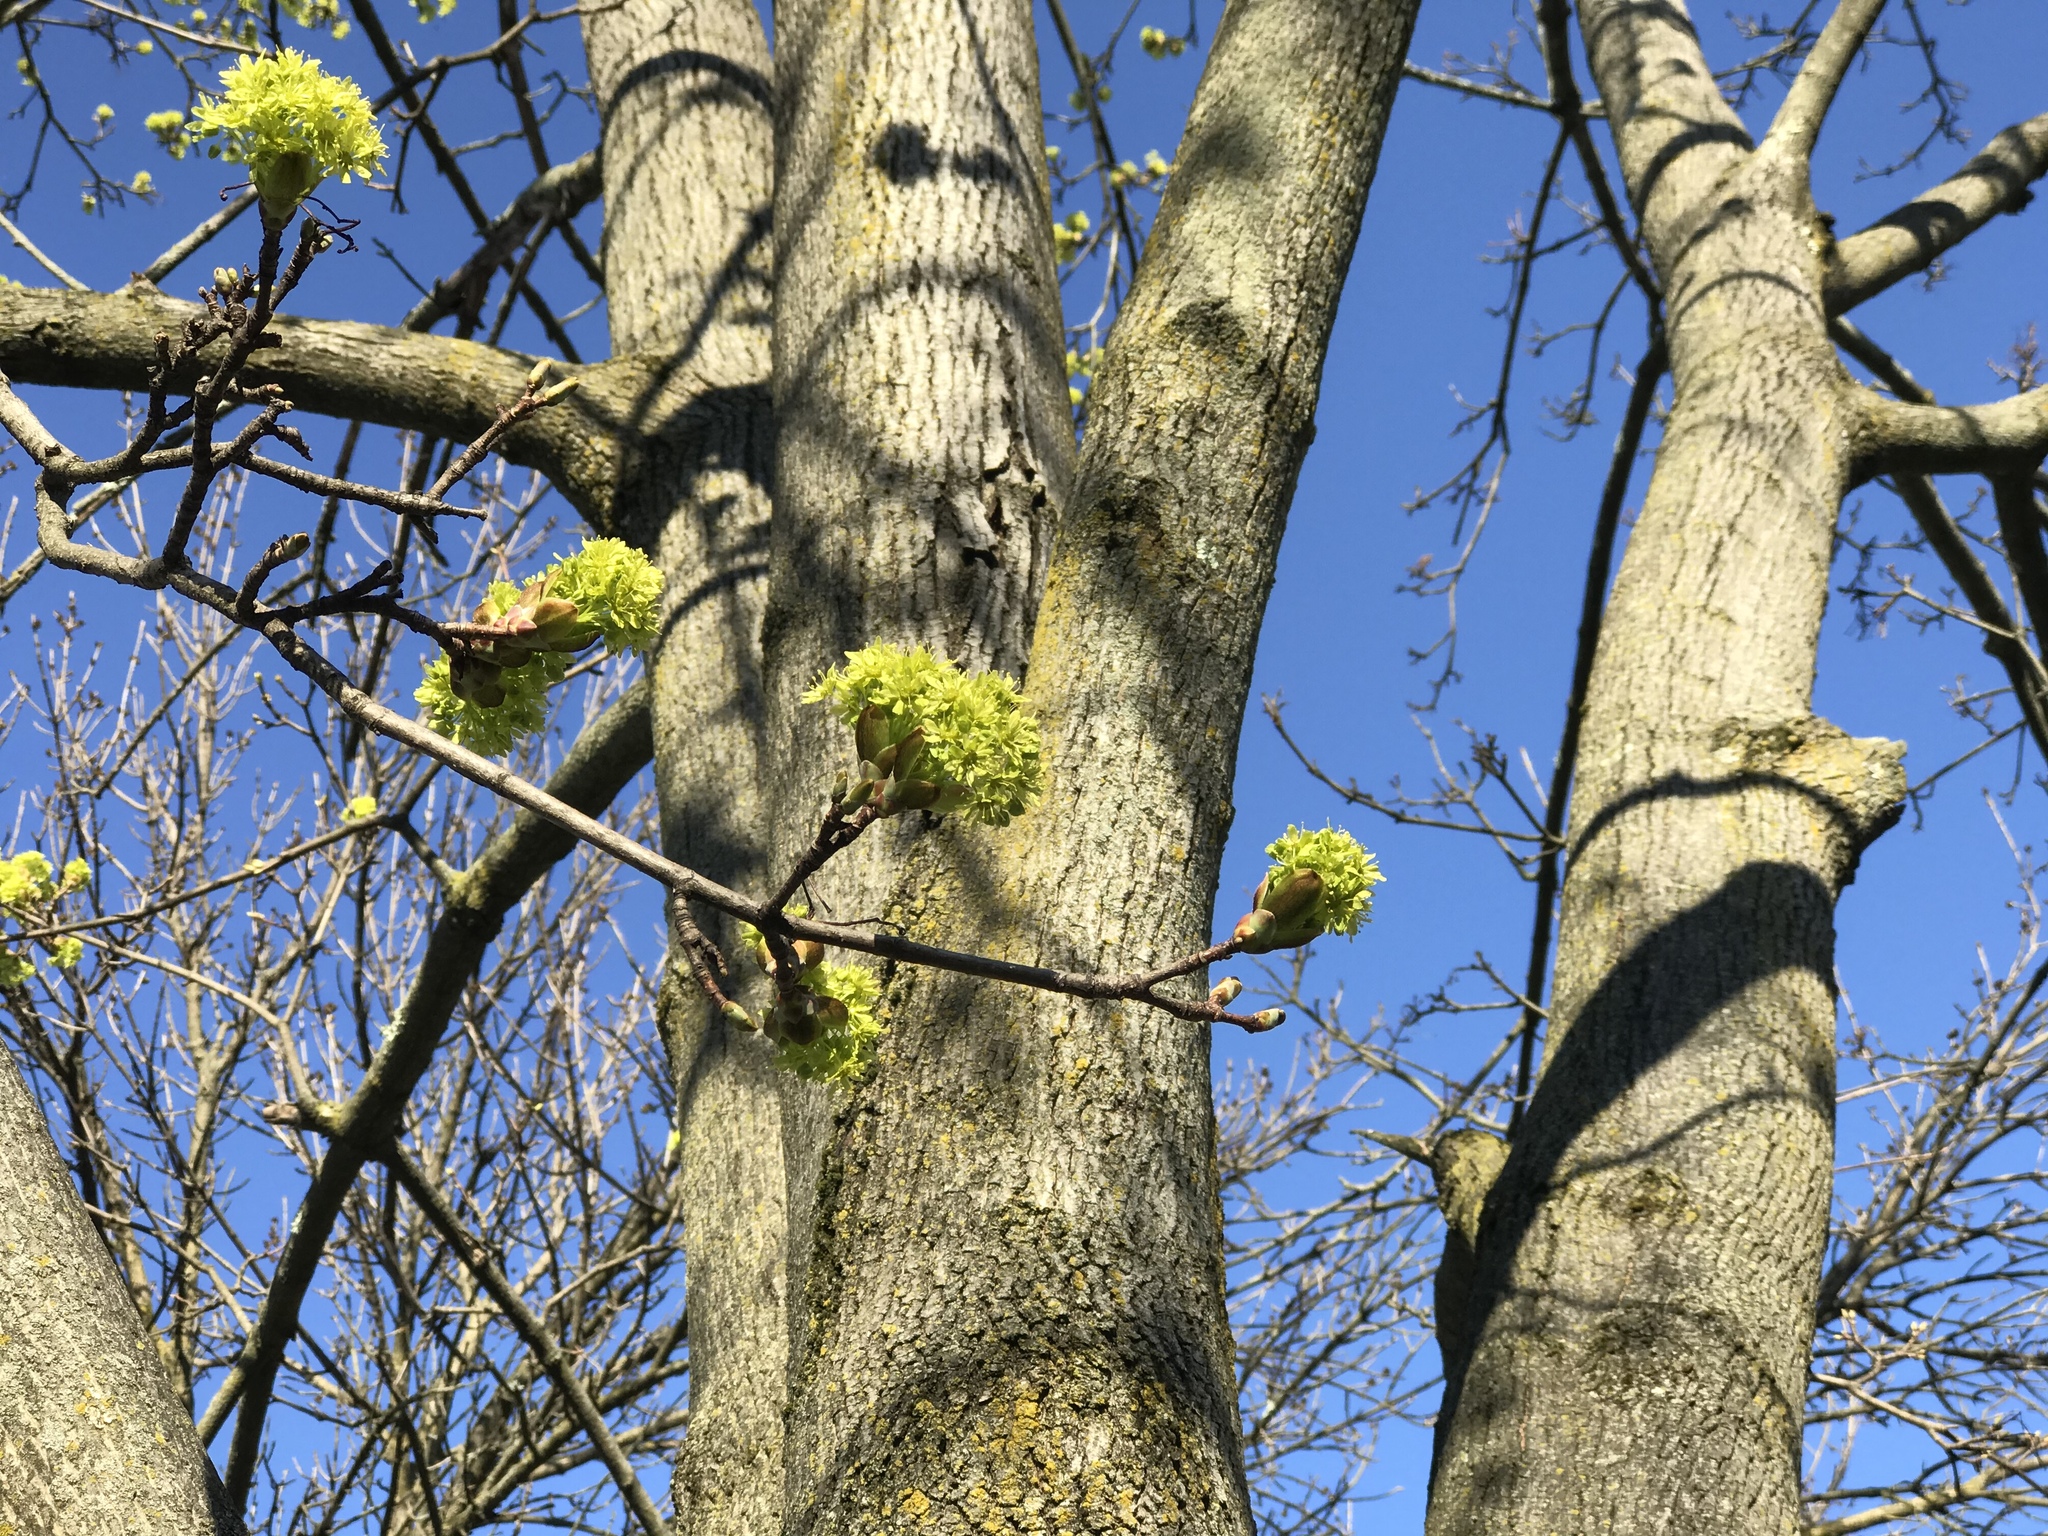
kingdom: Plantae
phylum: Tracheophyta
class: Magnoliopsida
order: Sapindales
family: Sapindaceae
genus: Acer
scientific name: Acer platanoides
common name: Norway maple
